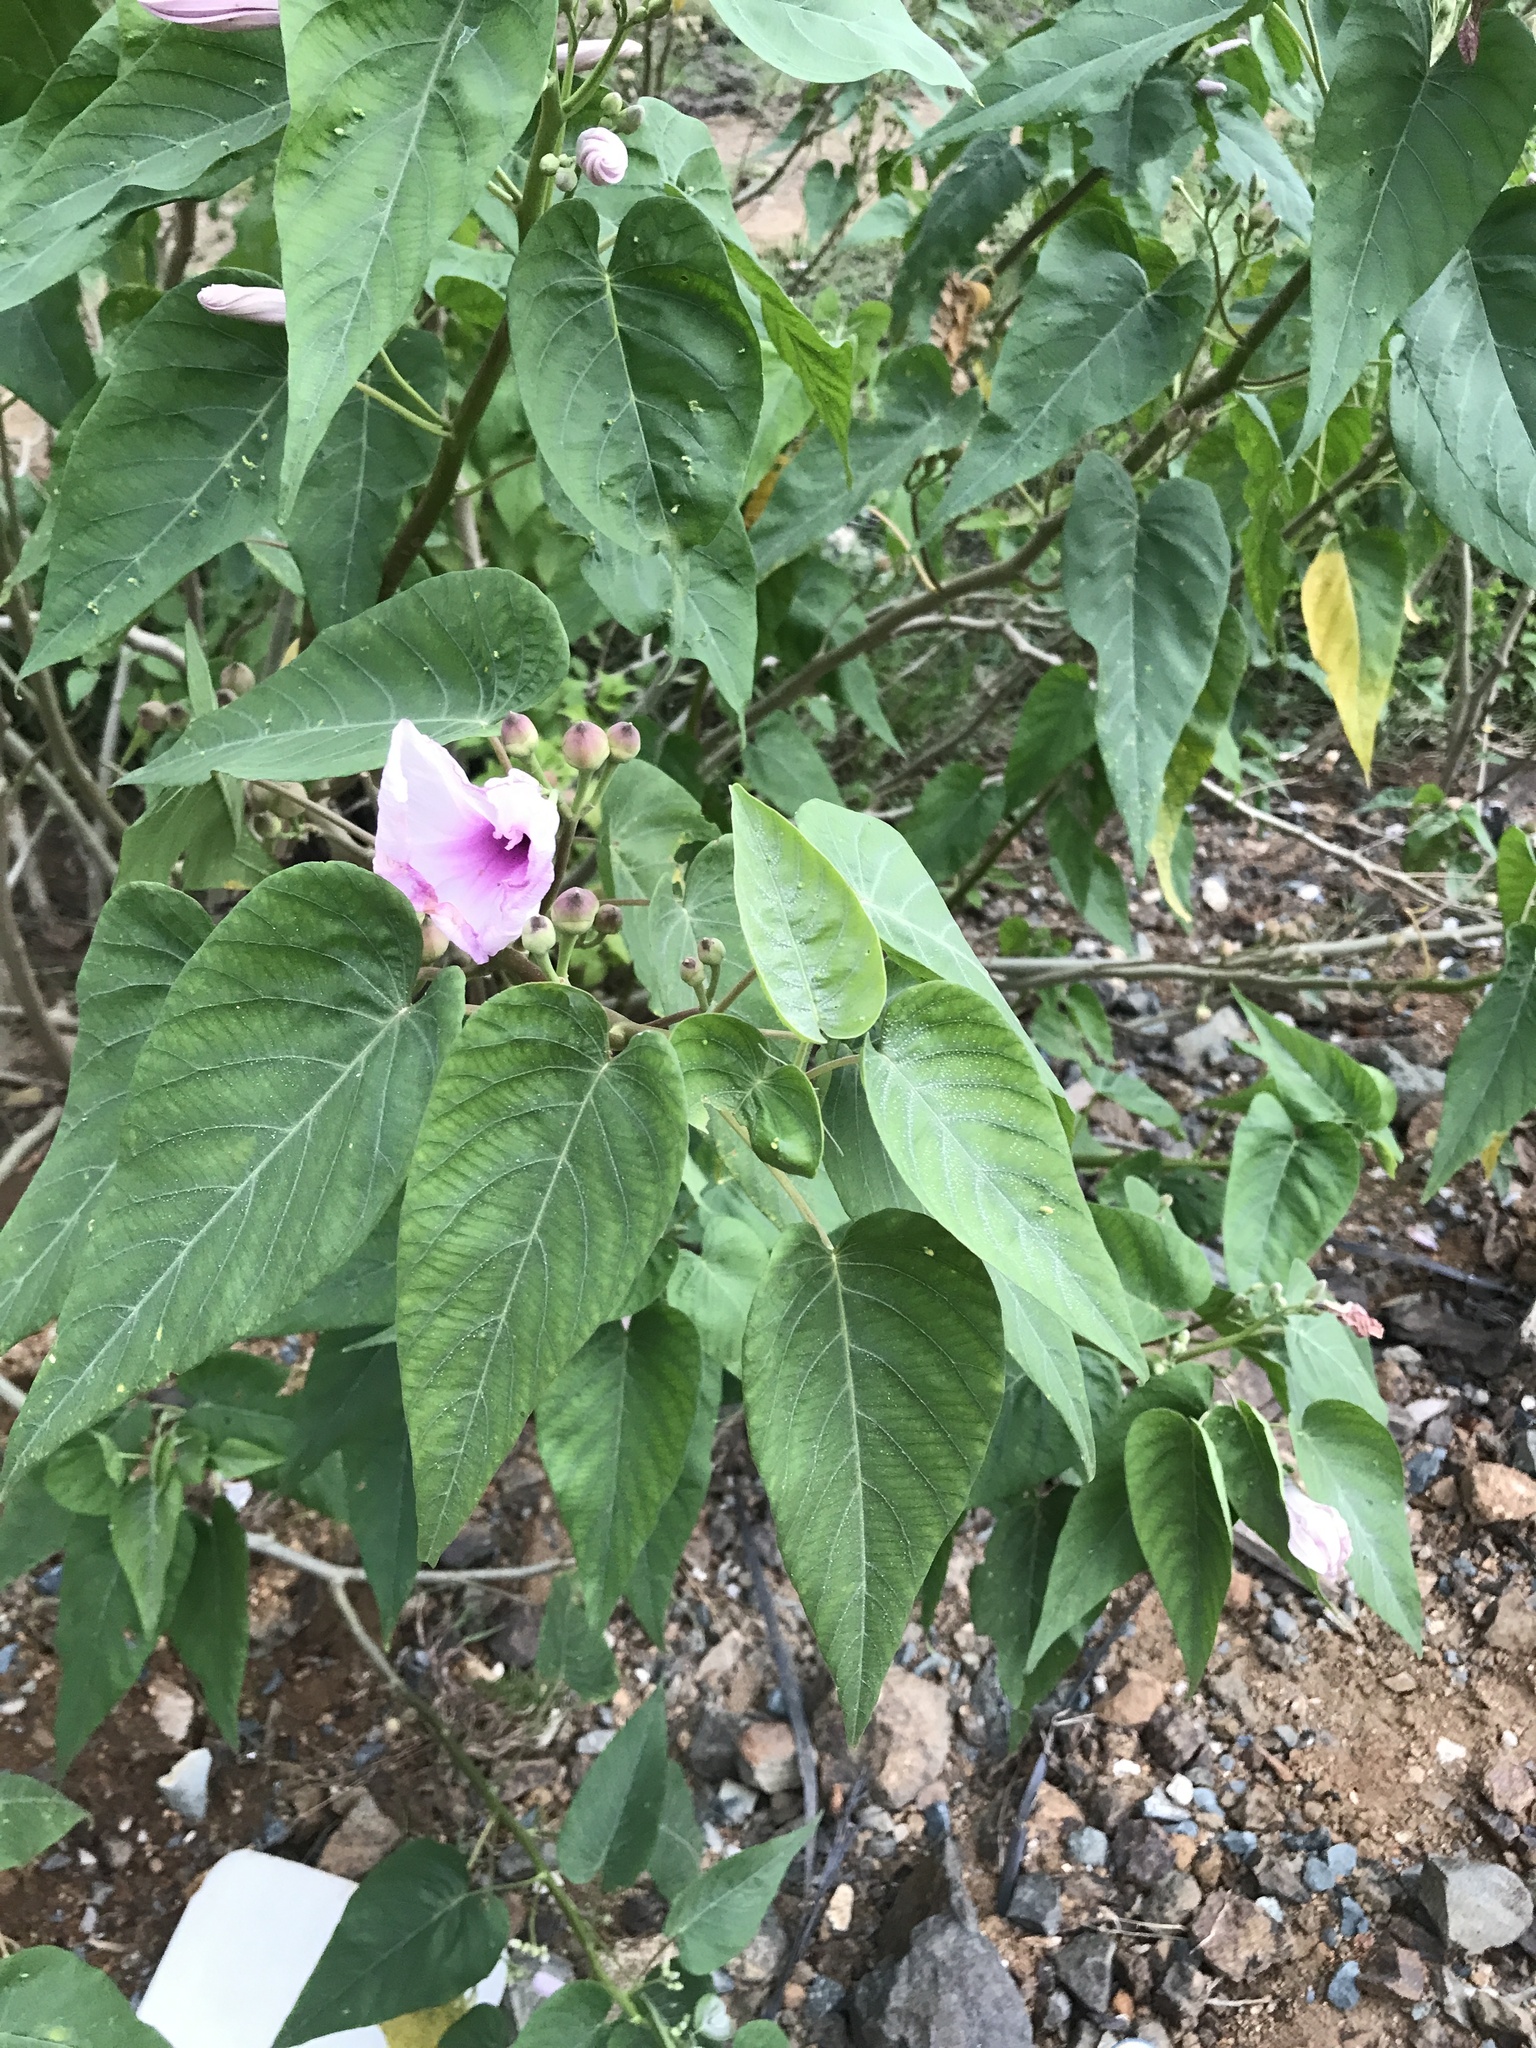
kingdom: Plantae
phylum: Tracheophyta
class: Magnoliopsida
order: Solanales
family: Convolvulaceae
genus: Ipomoea
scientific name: Ipomoea carnea
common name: Morning-glory
